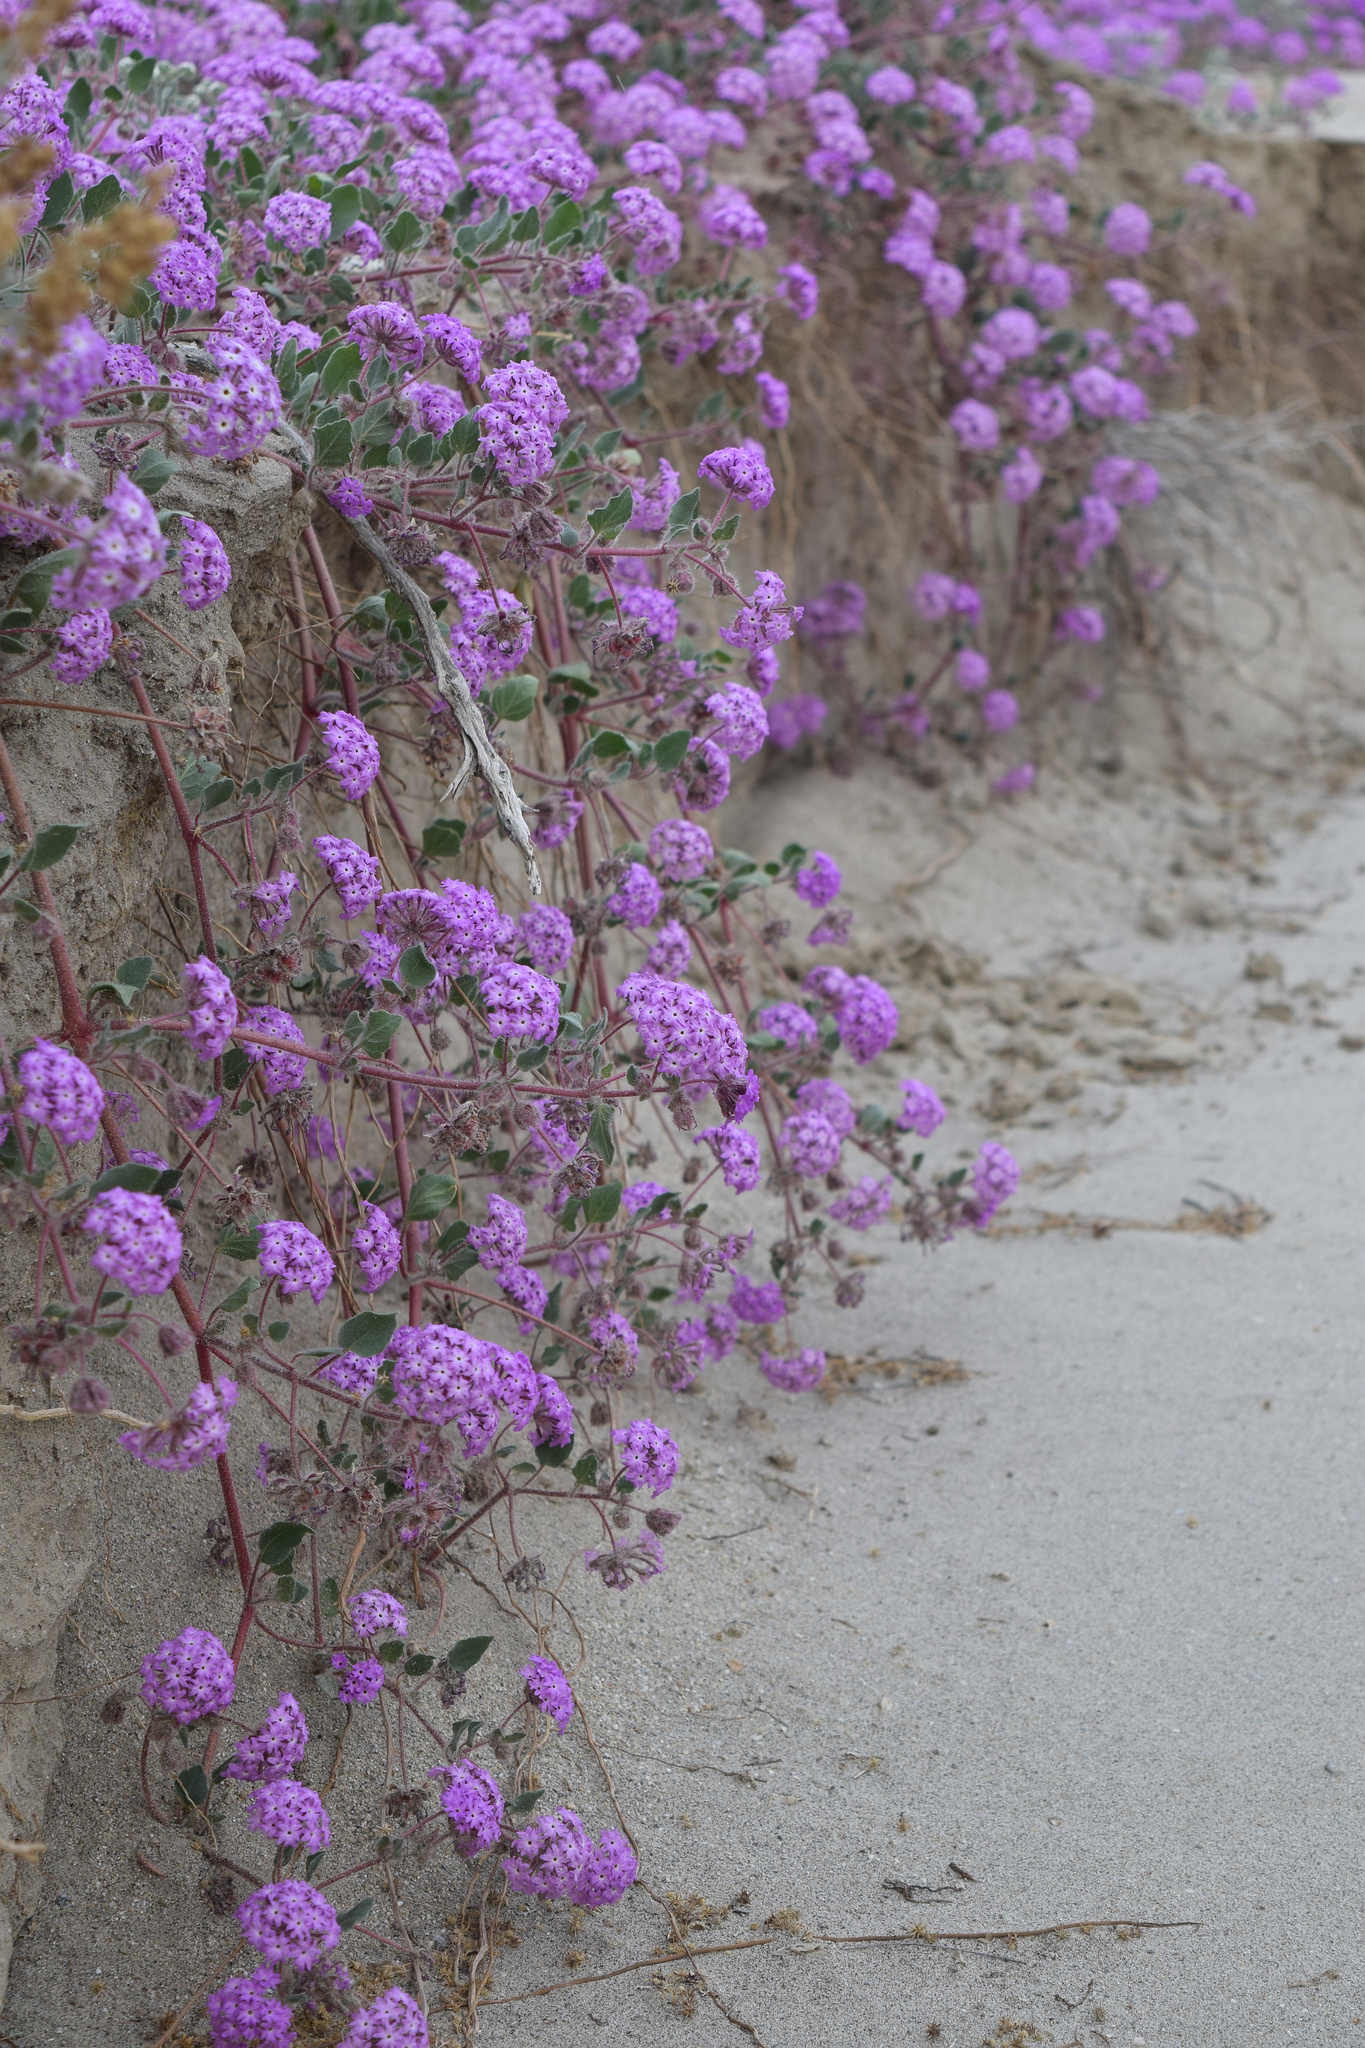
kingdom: Plantae
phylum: Tracheophyta
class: Magnoliopsida
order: Caryophyllales
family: Nyctaginaceae
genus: Abronia
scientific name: Abronia villosa
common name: Desert sand-verbena
